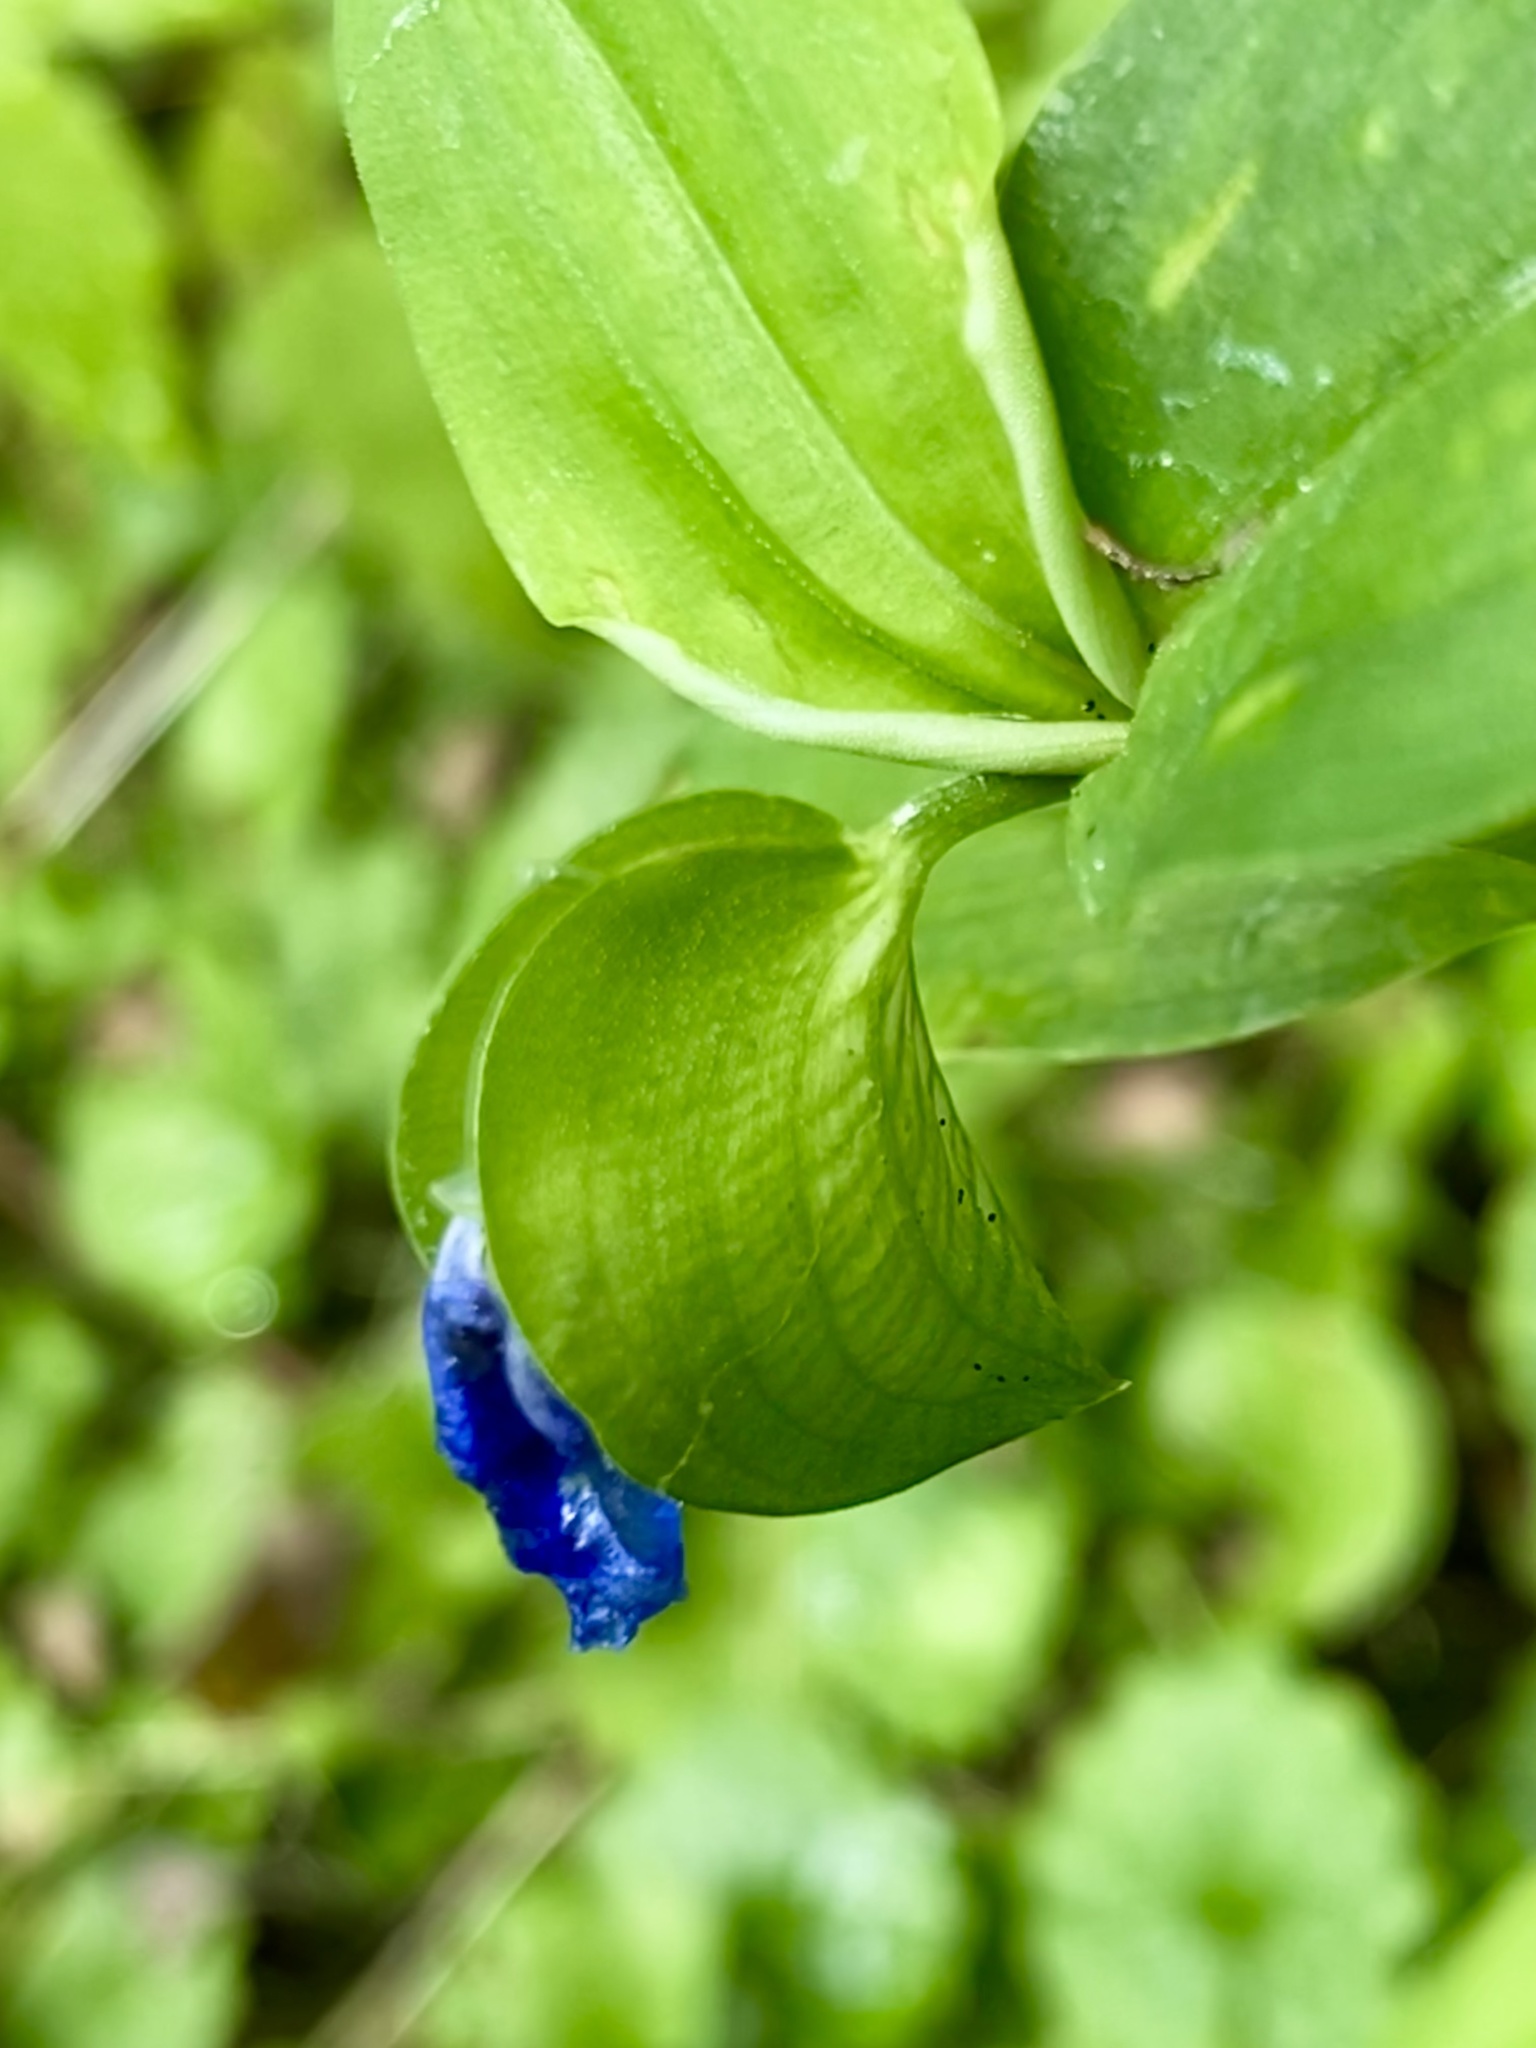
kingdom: Plantae
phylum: Tracheophyta
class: Liliopsida
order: Commelinales
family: Commelinaceae
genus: Commelina
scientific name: Commelina communis
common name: Asiatic dayflower
